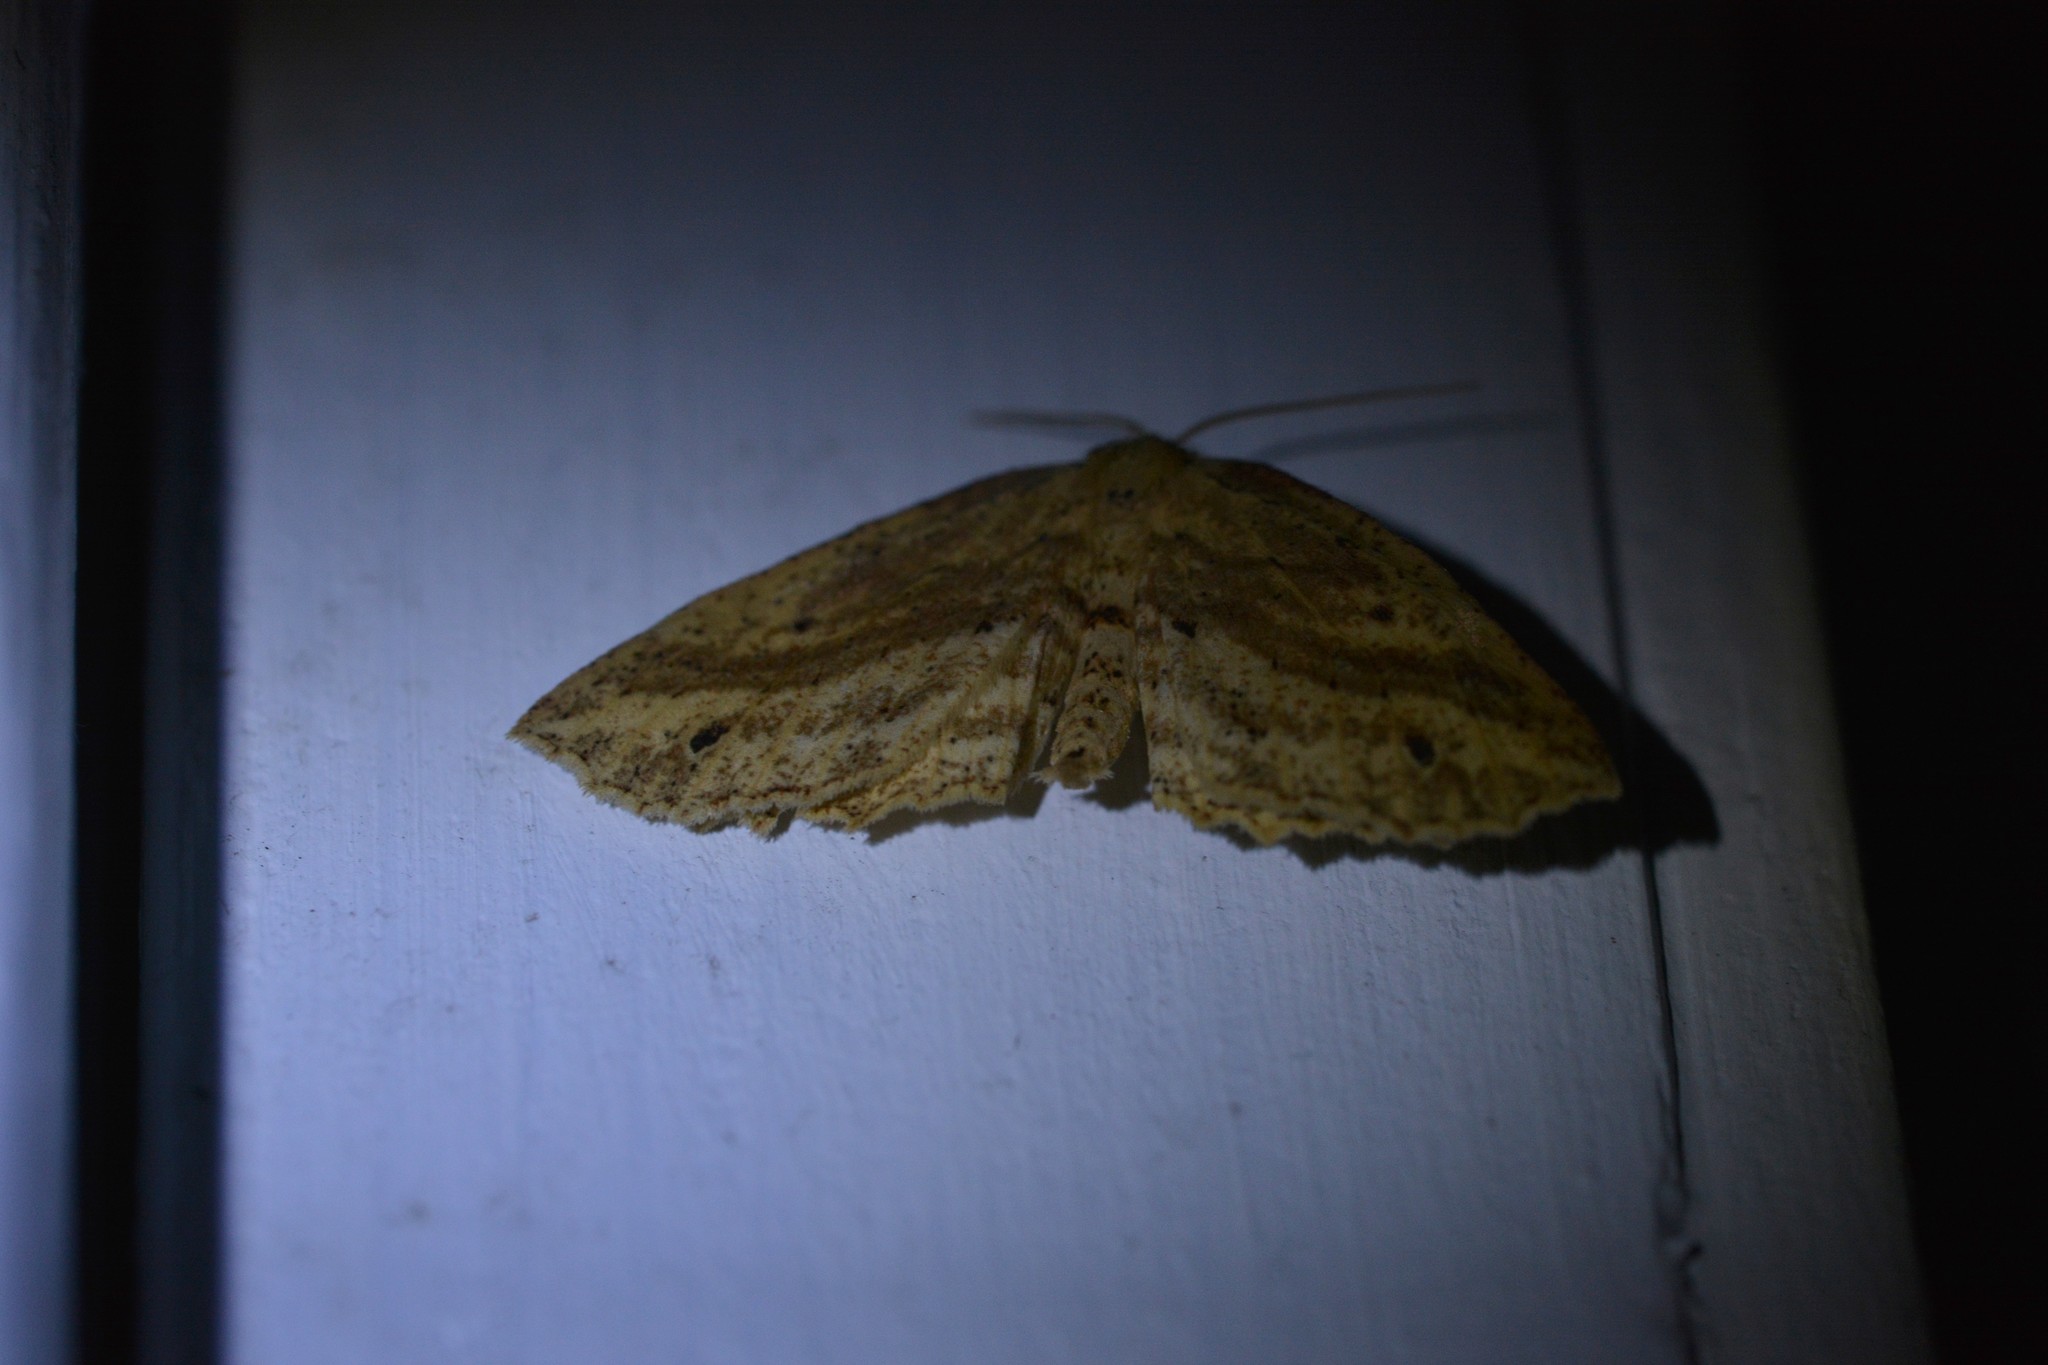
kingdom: Animalia
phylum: Arthropoda
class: Insecta
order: Lepidoptera
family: Geometridae
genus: Xyridacma
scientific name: Xyridacma veronicae
